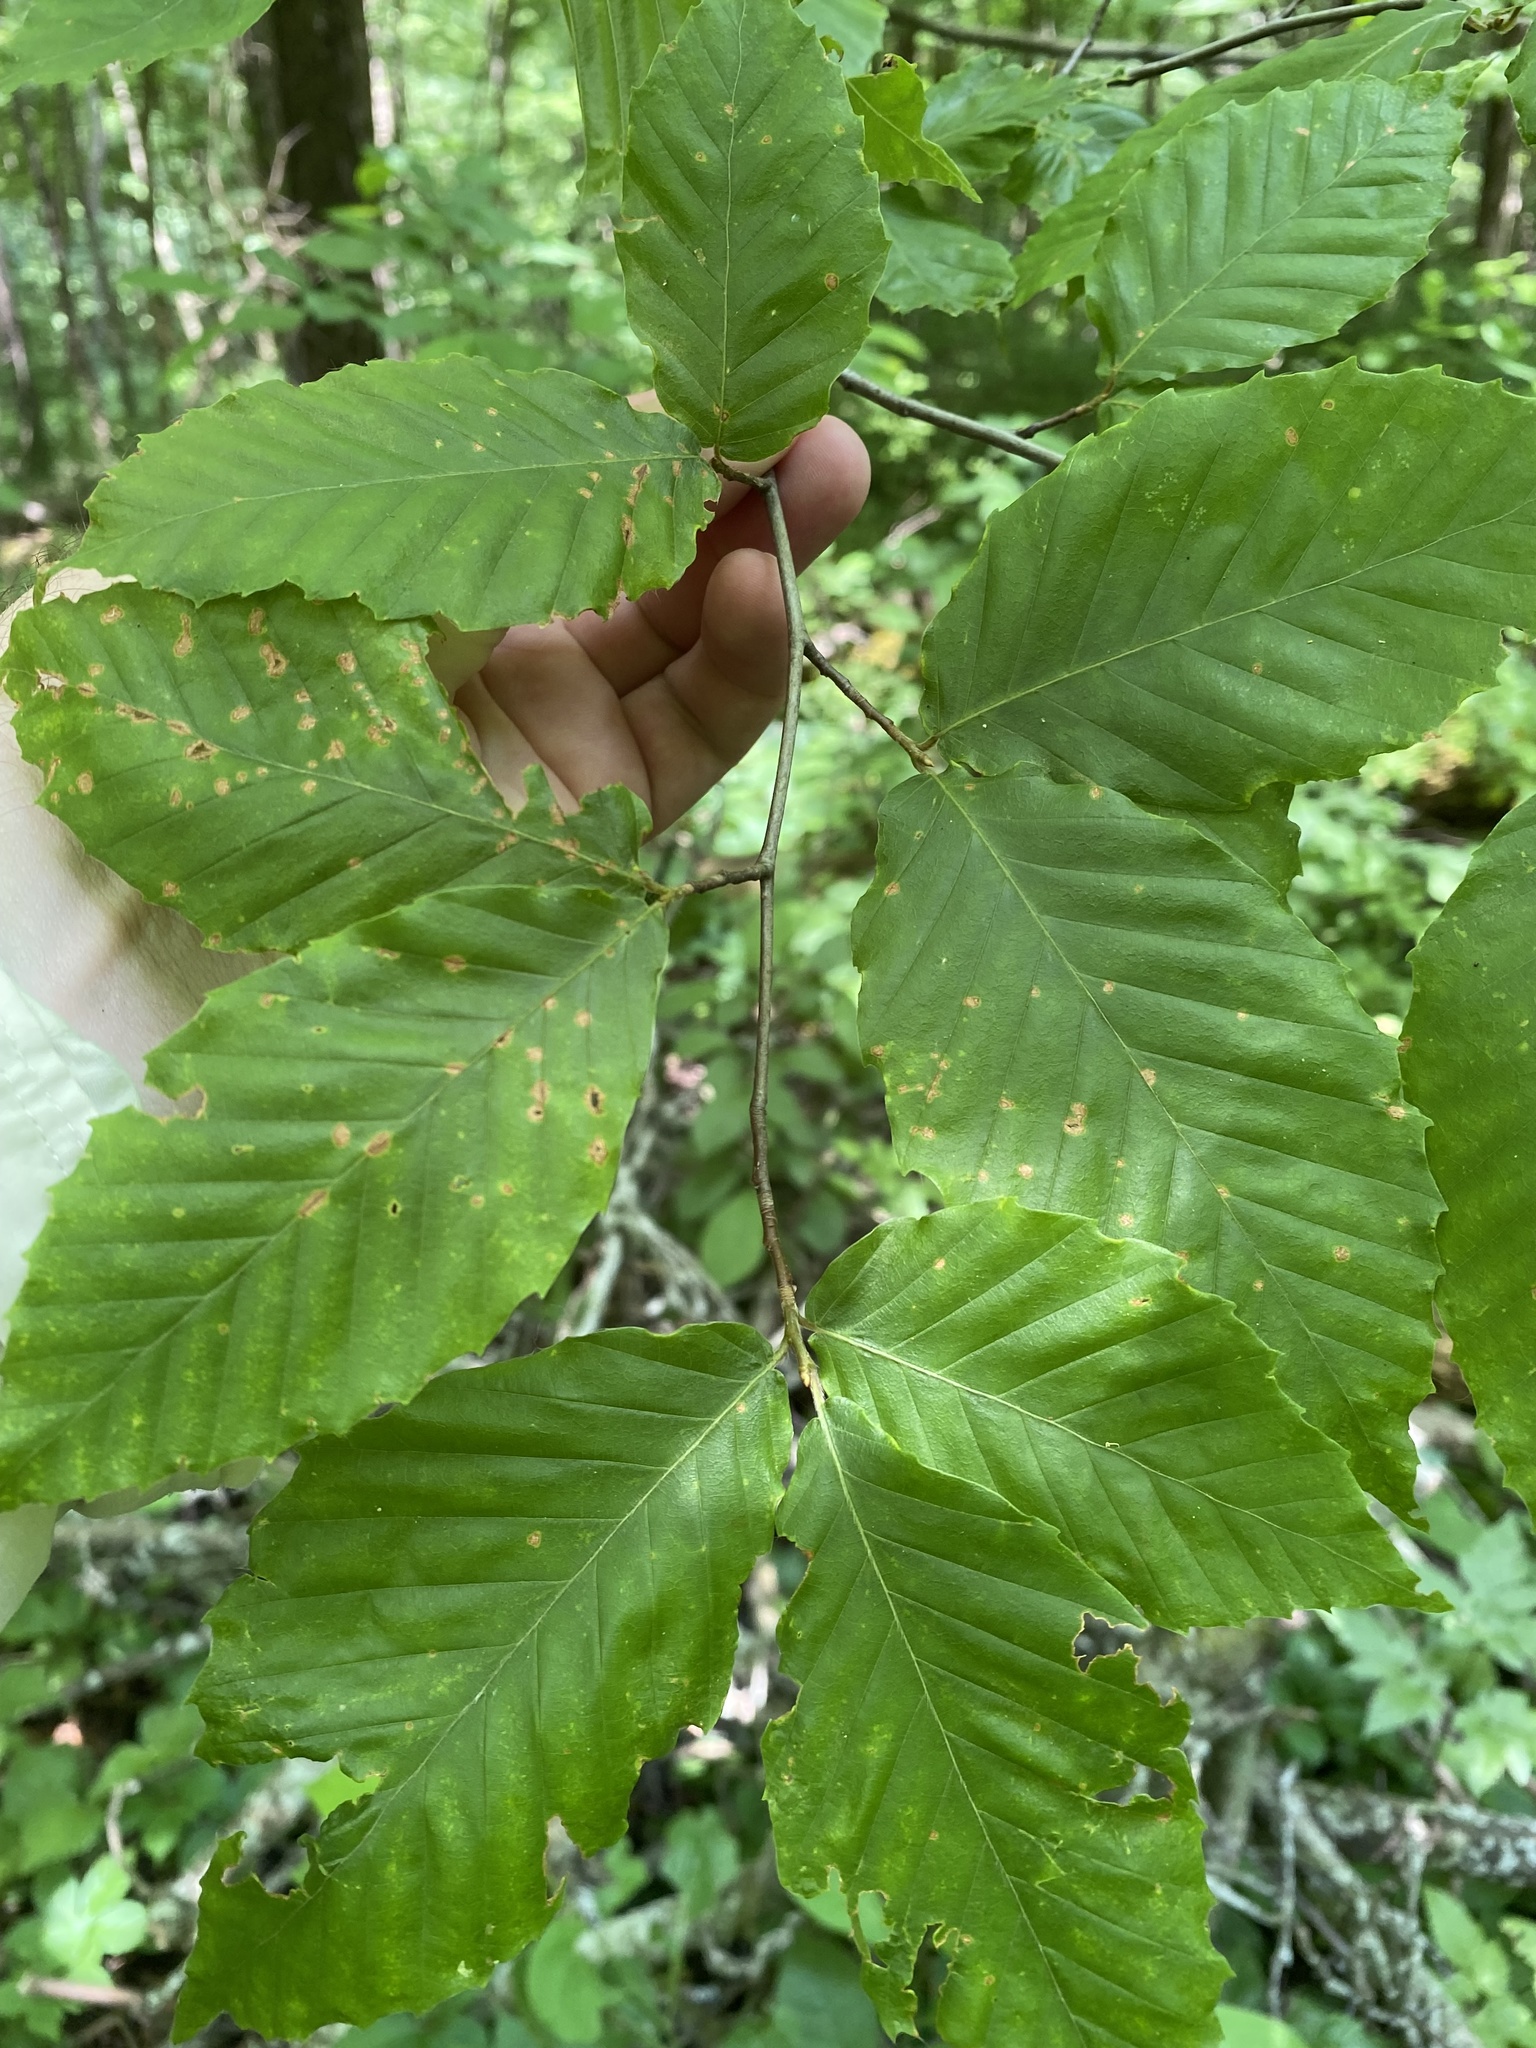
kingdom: Plantae
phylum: Tracheophyta
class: Magnoliopsida
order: Fagales
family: Fagaceae
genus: Fagus
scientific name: Fagus grandifolia
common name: American beech
